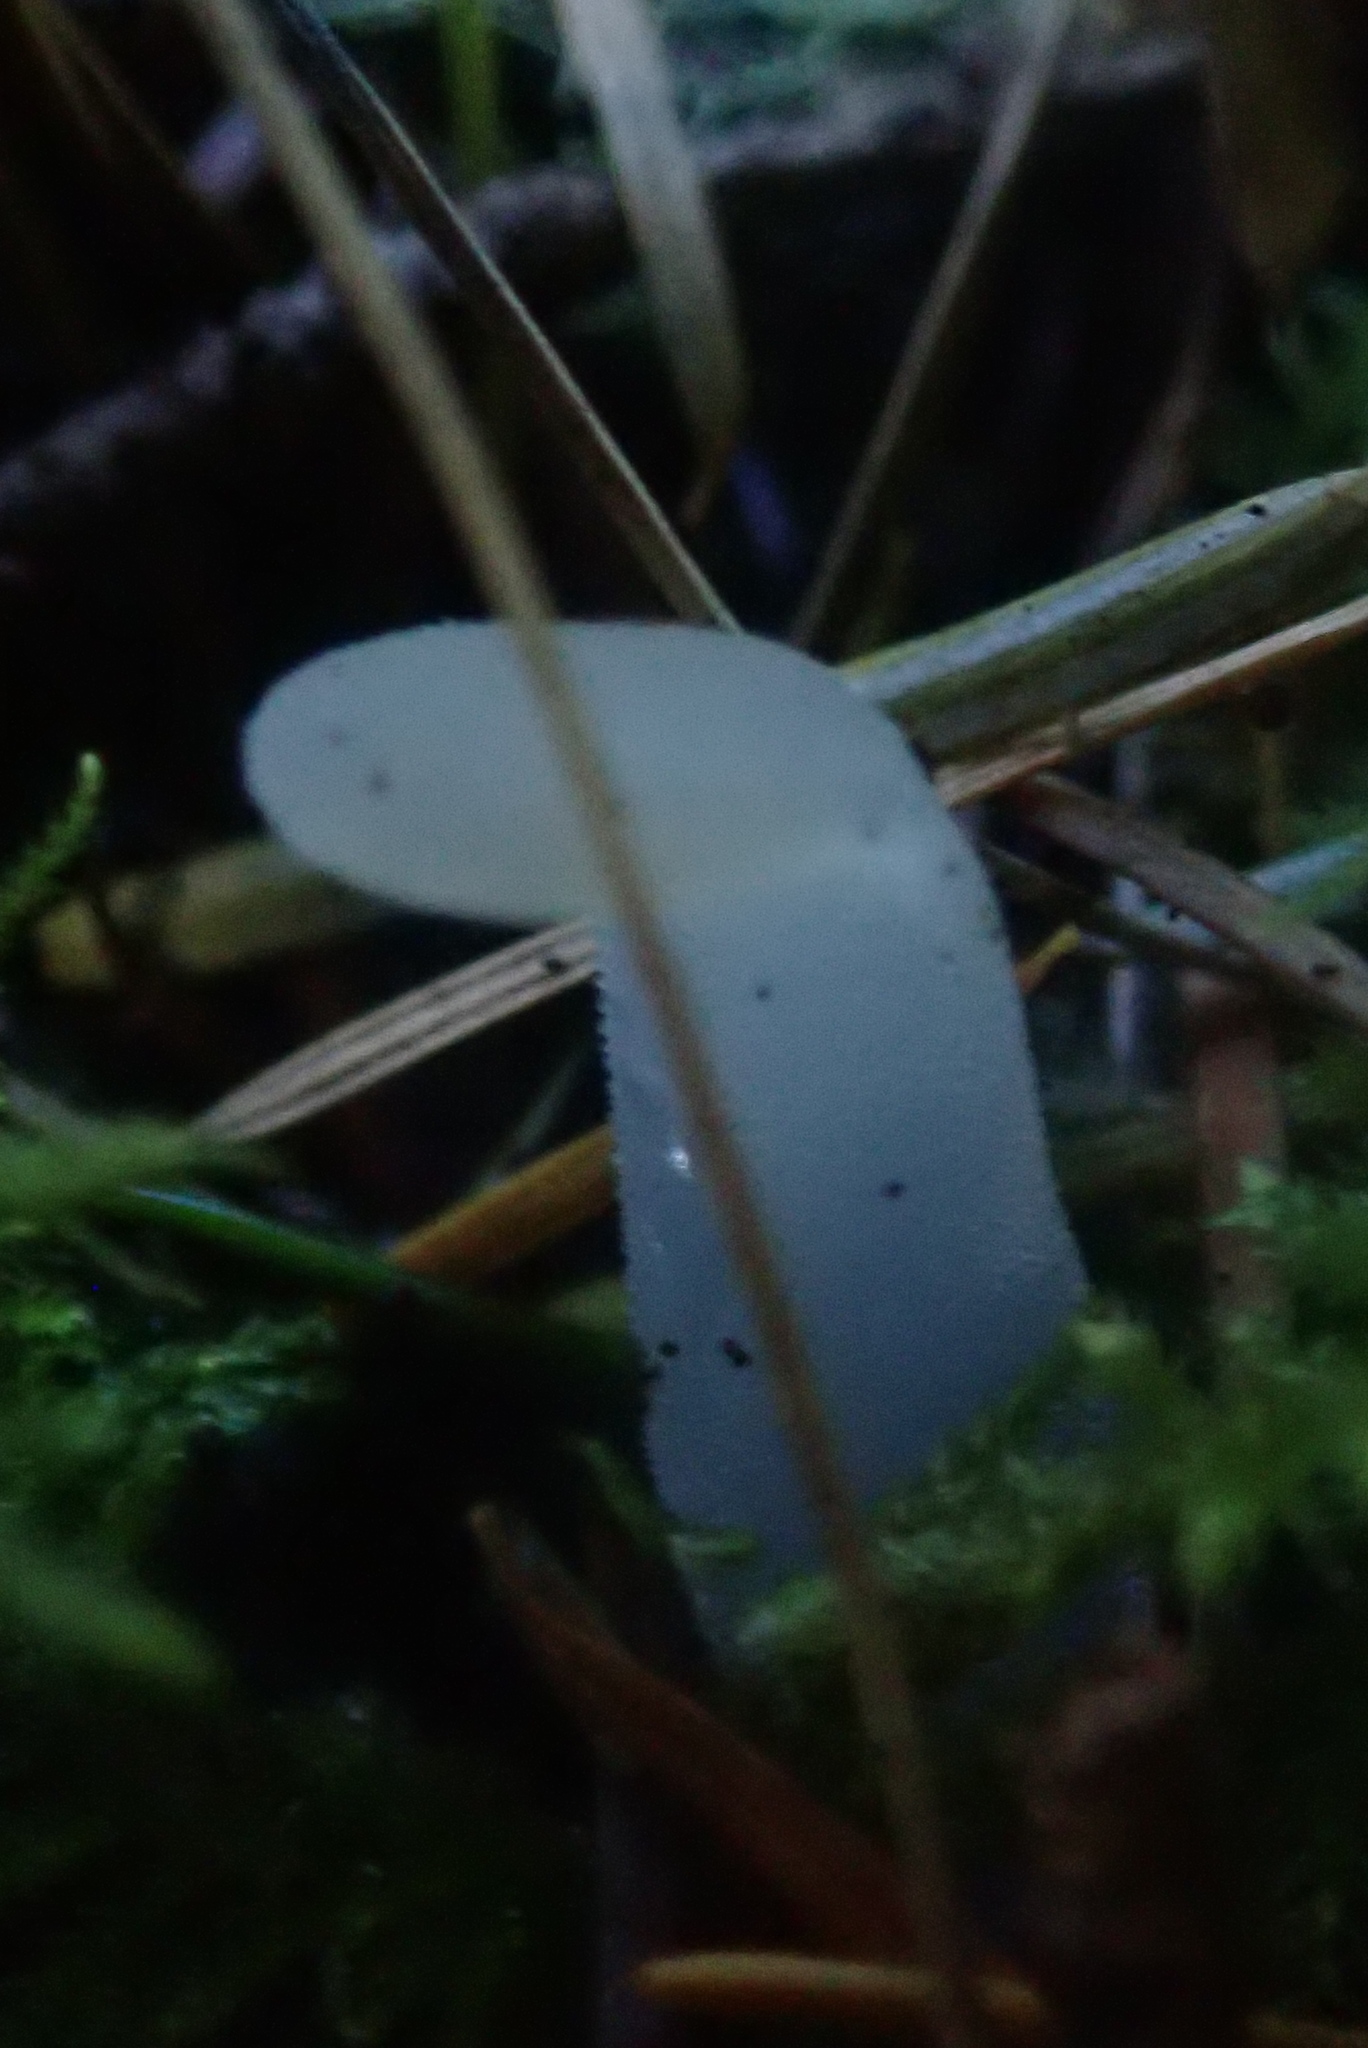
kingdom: Fungi
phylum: Basidiomycota
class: Agaricomycetes
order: Auriculariales
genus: Pseudohydnum
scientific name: Pseudohydnum gelatinosum
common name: Jelly tongue
